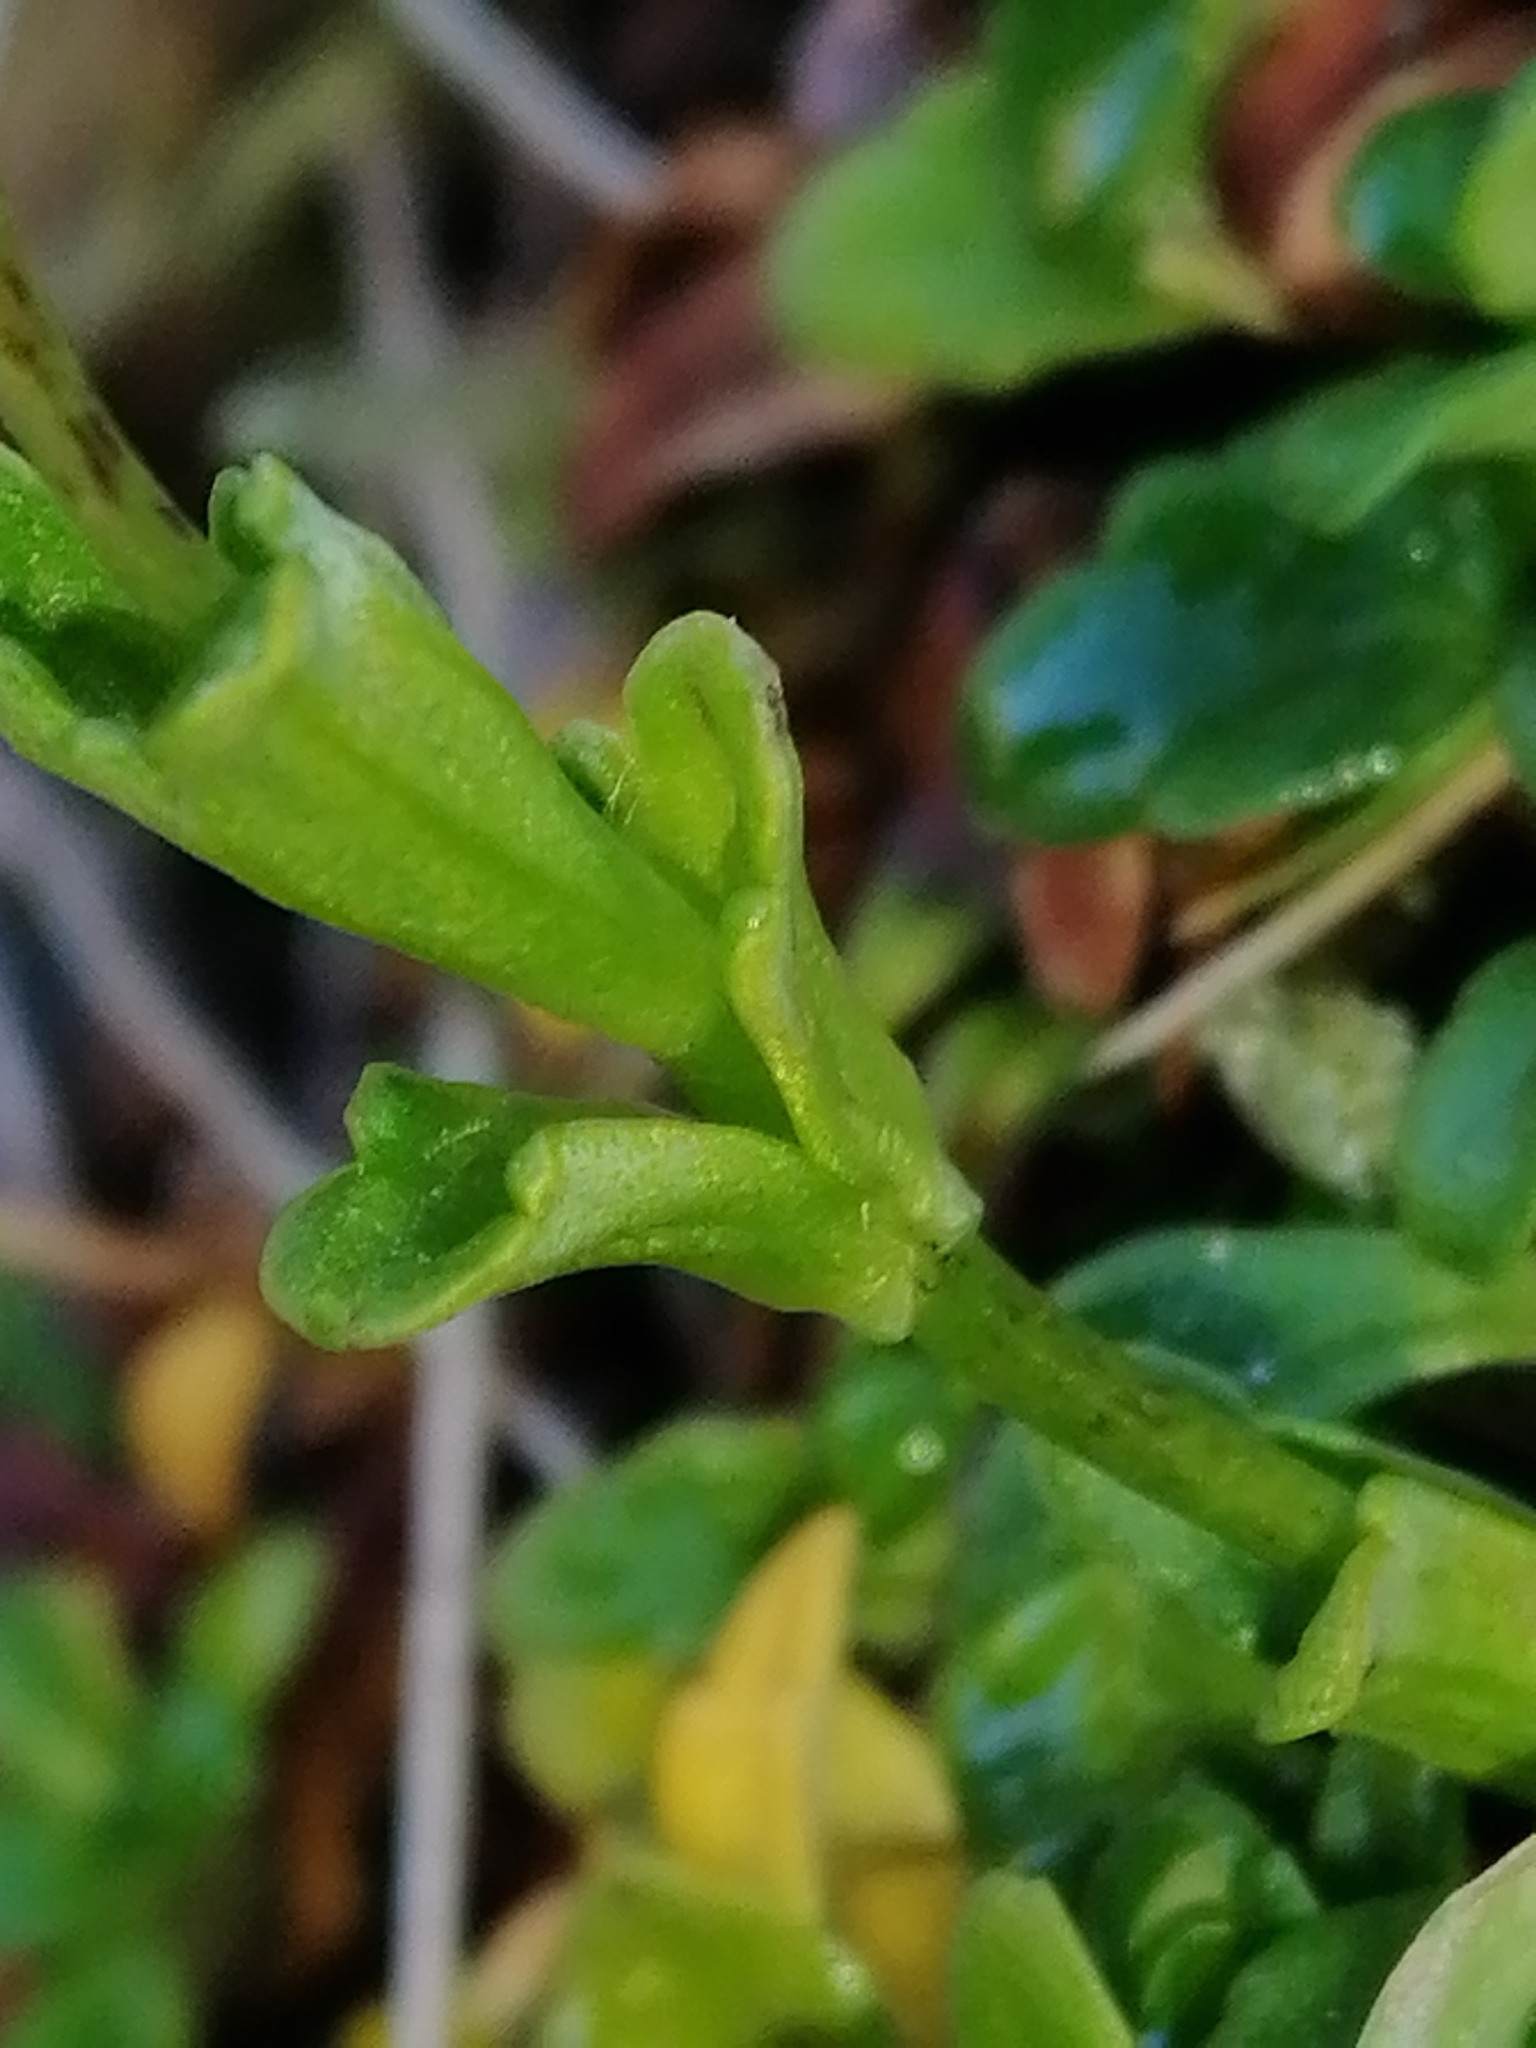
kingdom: Plantae
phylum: Tracheophyta
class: Magnoliopsida
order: Lamiales
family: Plantaginaceae
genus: Ourisia
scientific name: Ourisia caespitosa
